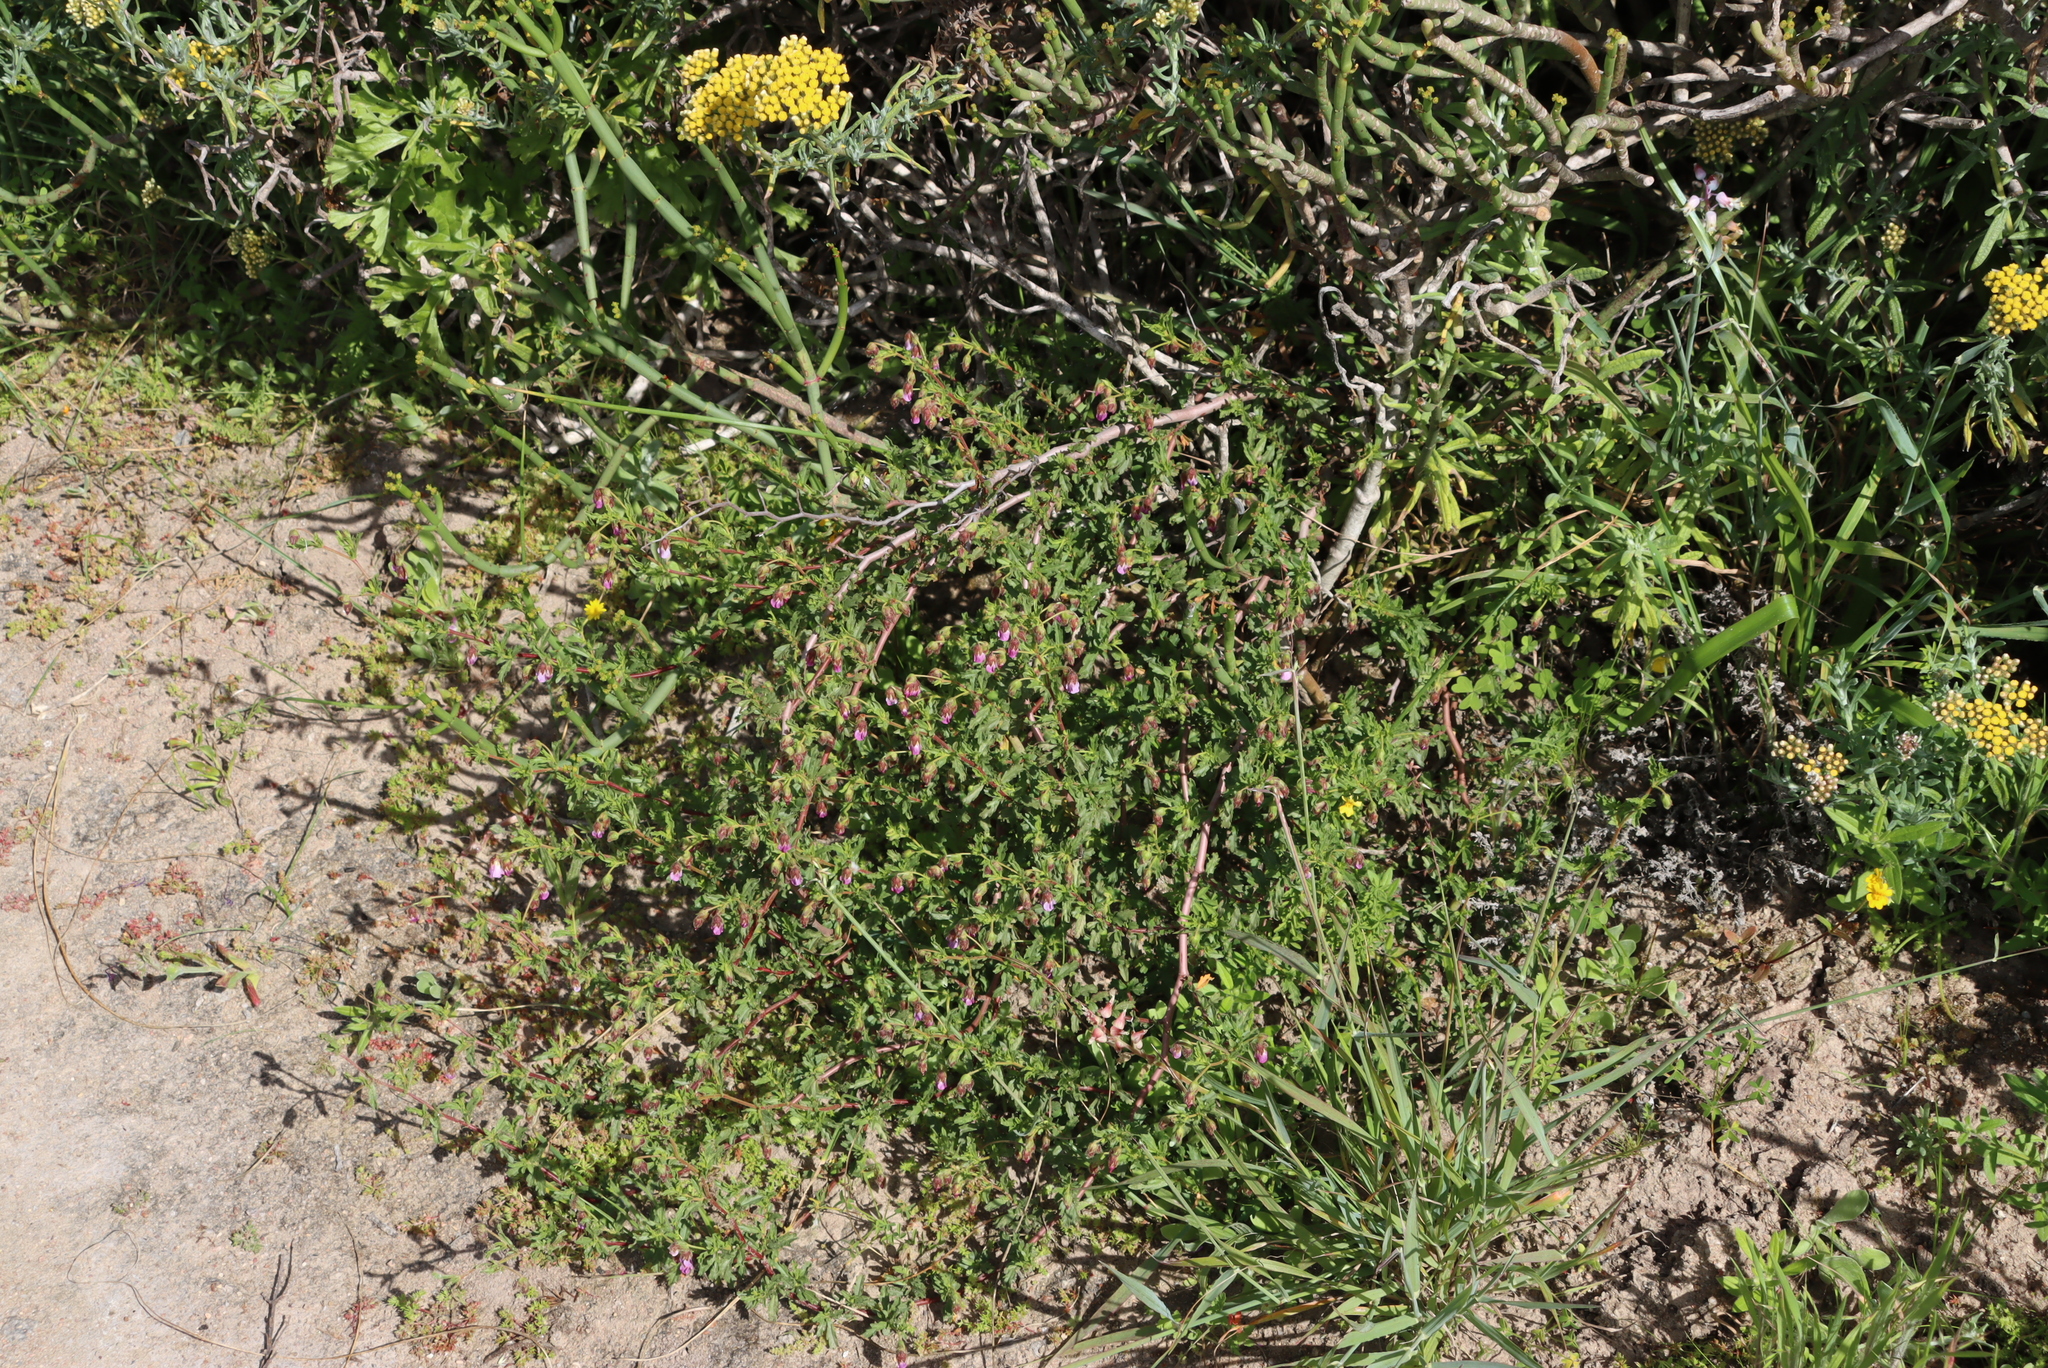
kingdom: Plantae
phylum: Tracheophyta
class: Magnoliopsida
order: Malvales
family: Malvaceae
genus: Hermannia
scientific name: Hermannia heterophylla
